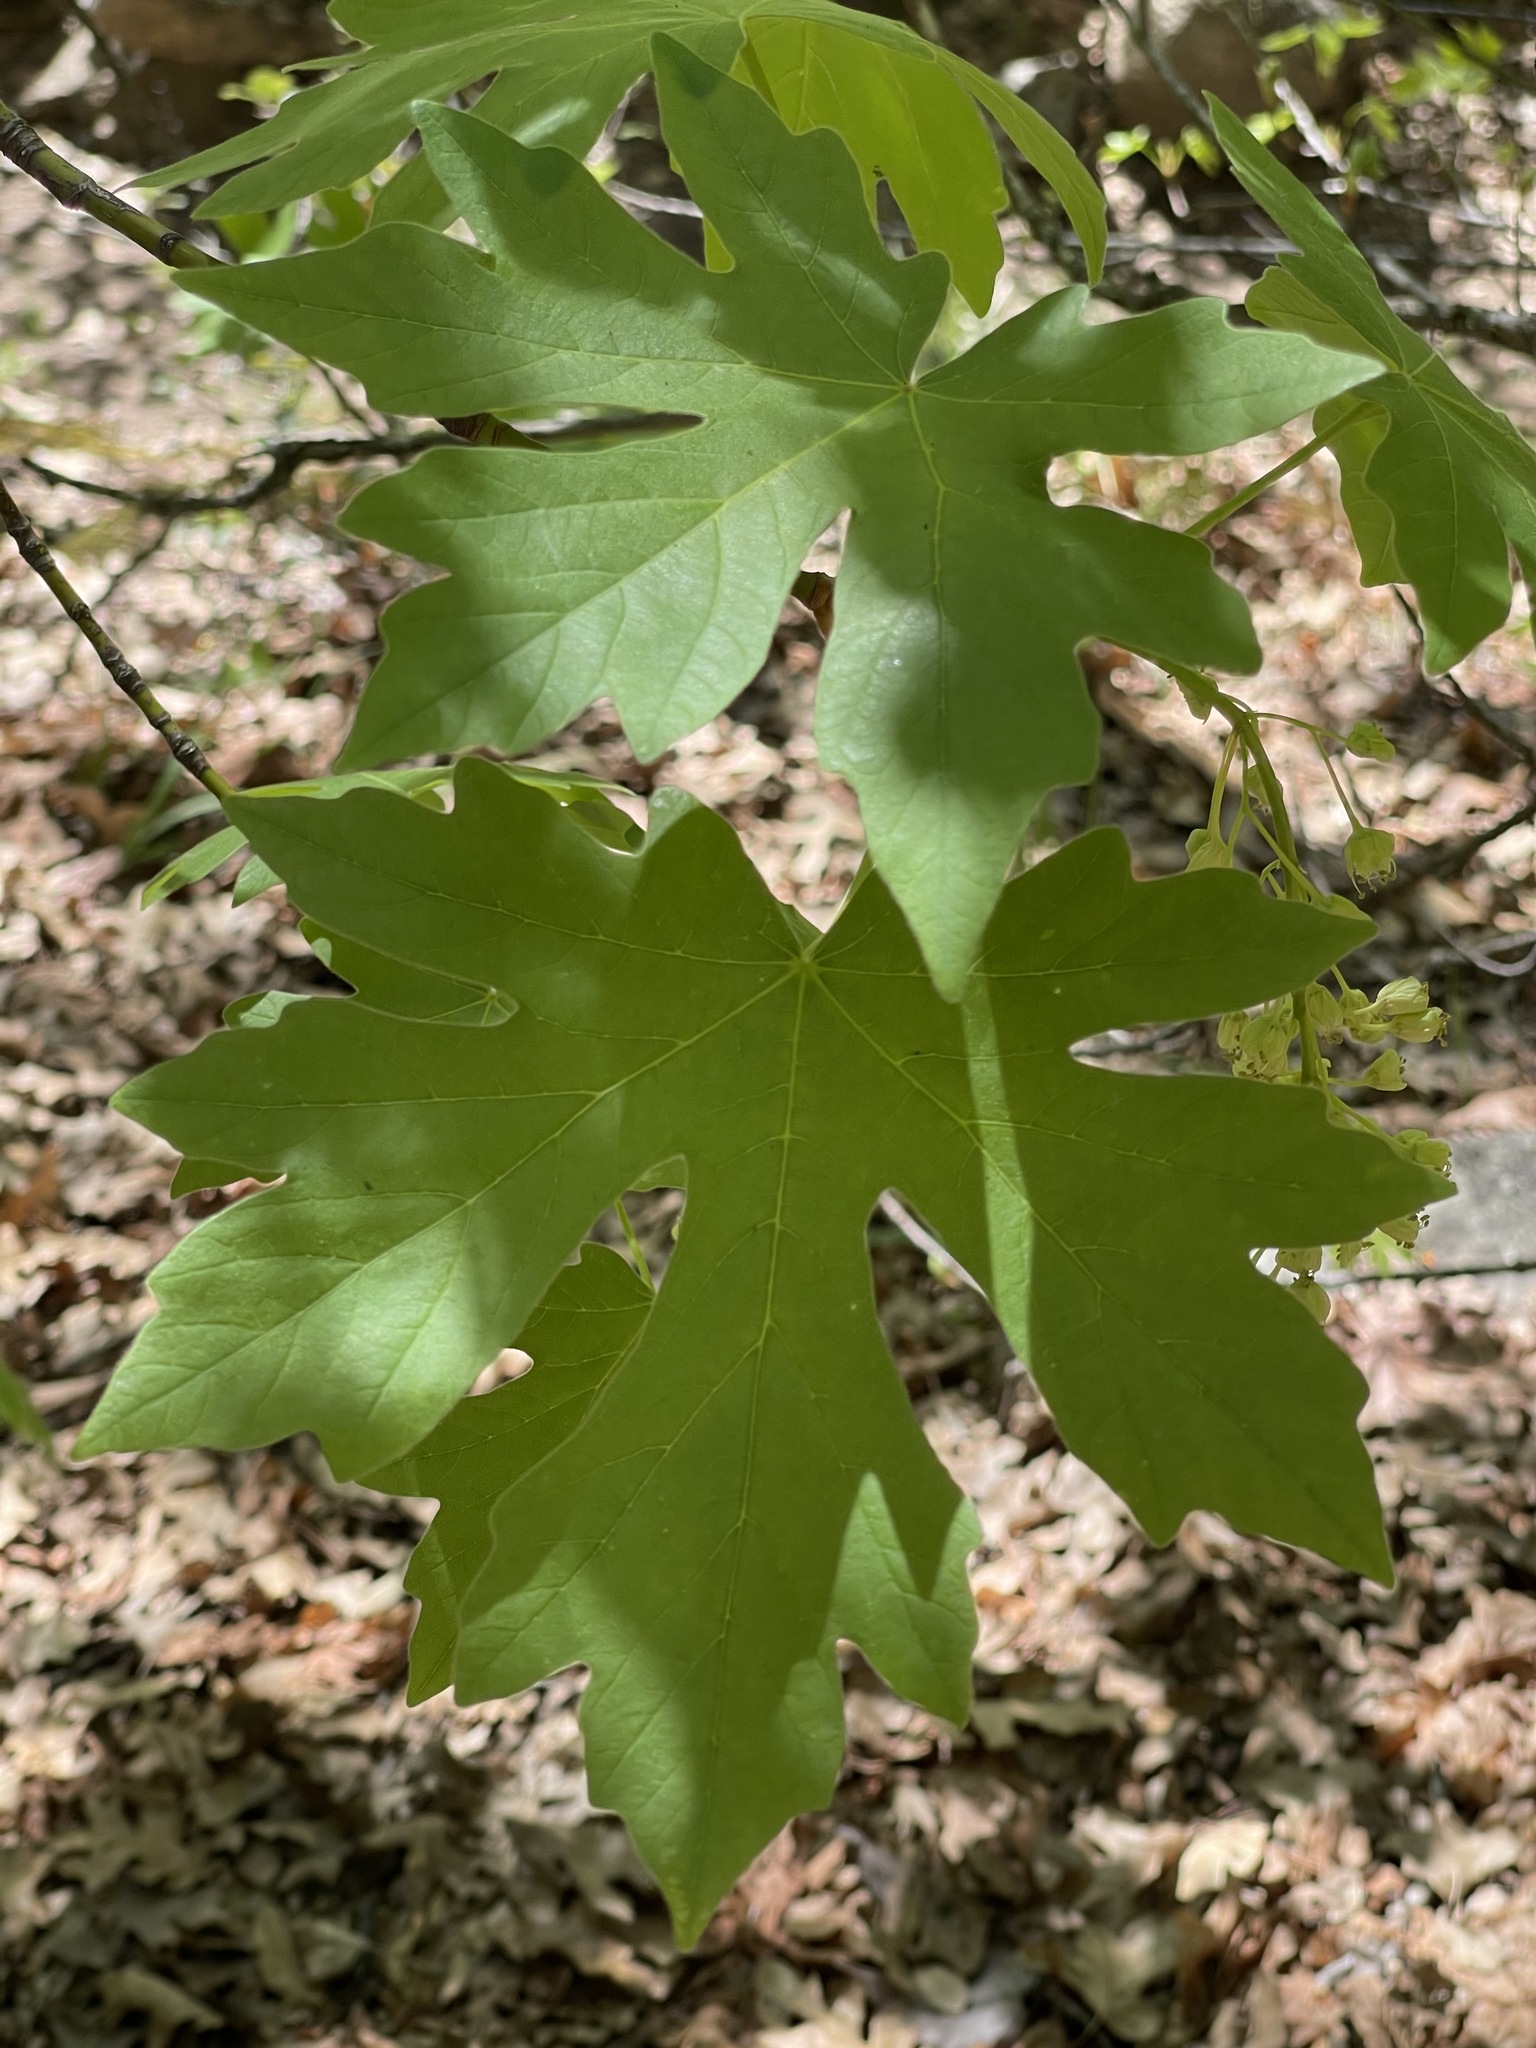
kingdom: Plantae
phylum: Tracheophyta
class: Magnoliopsida
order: Sapindales
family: Sapindaceae
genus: Acer
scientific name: Acer macrophyllum
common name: Oregon maple
